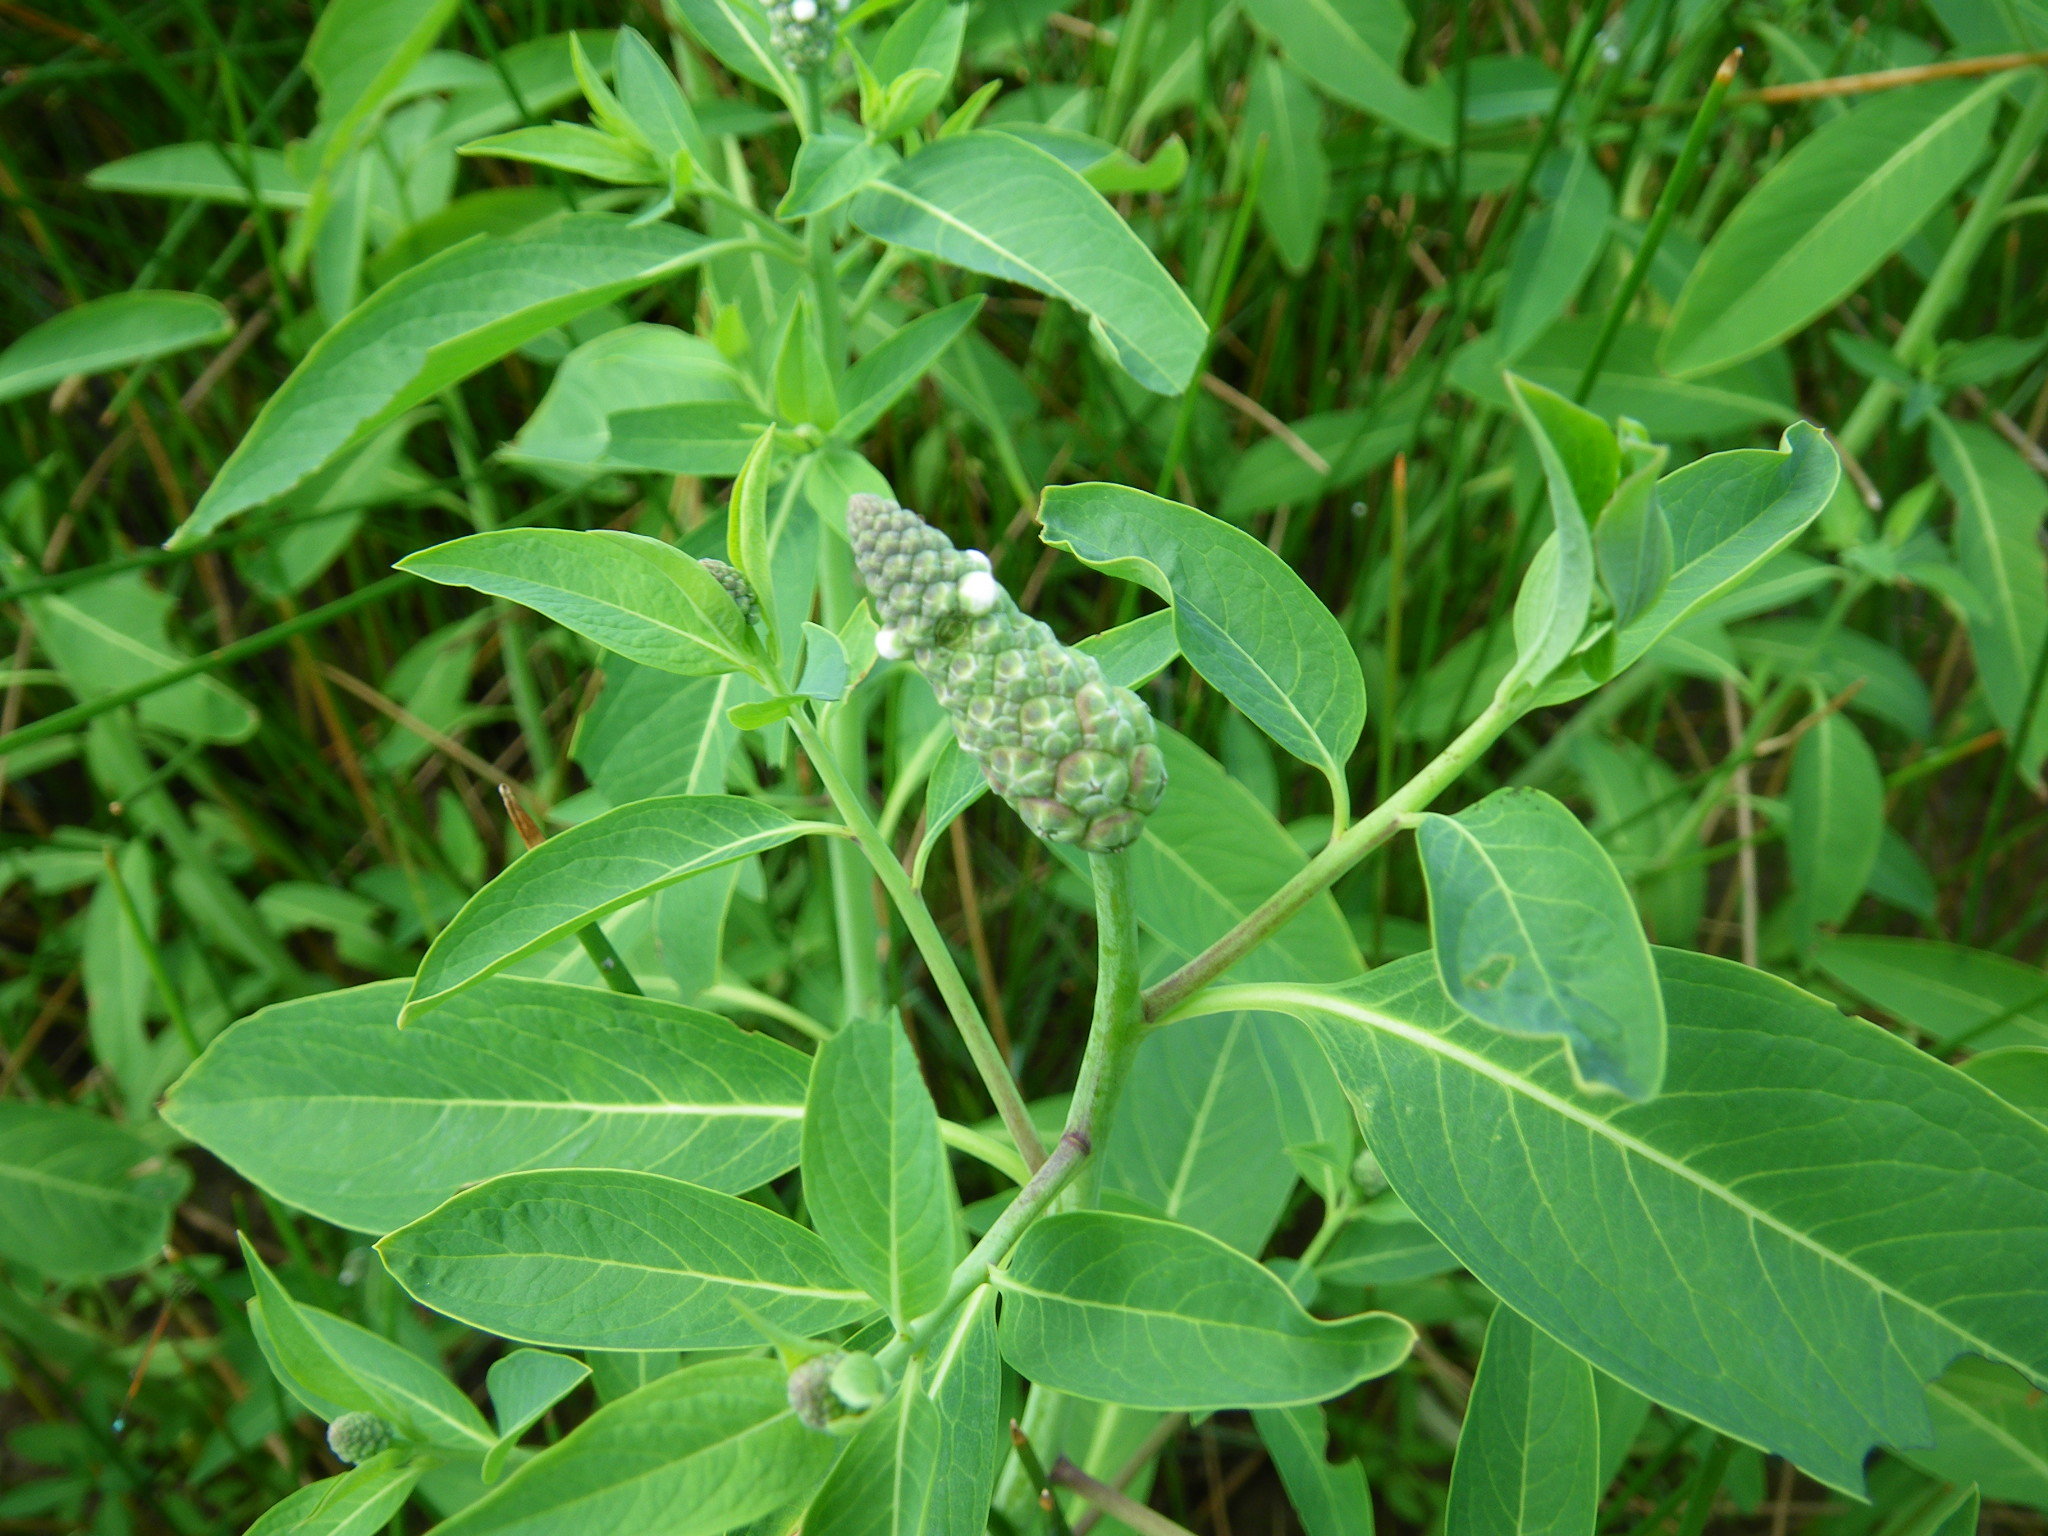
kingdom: Plantae
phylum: Tracheophyta
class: Magnoliopsida
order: Solanales
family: Sphenocleaceae
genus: Sphenoclea
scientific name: Sphenoclea zeylanica
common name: Chickenspike
